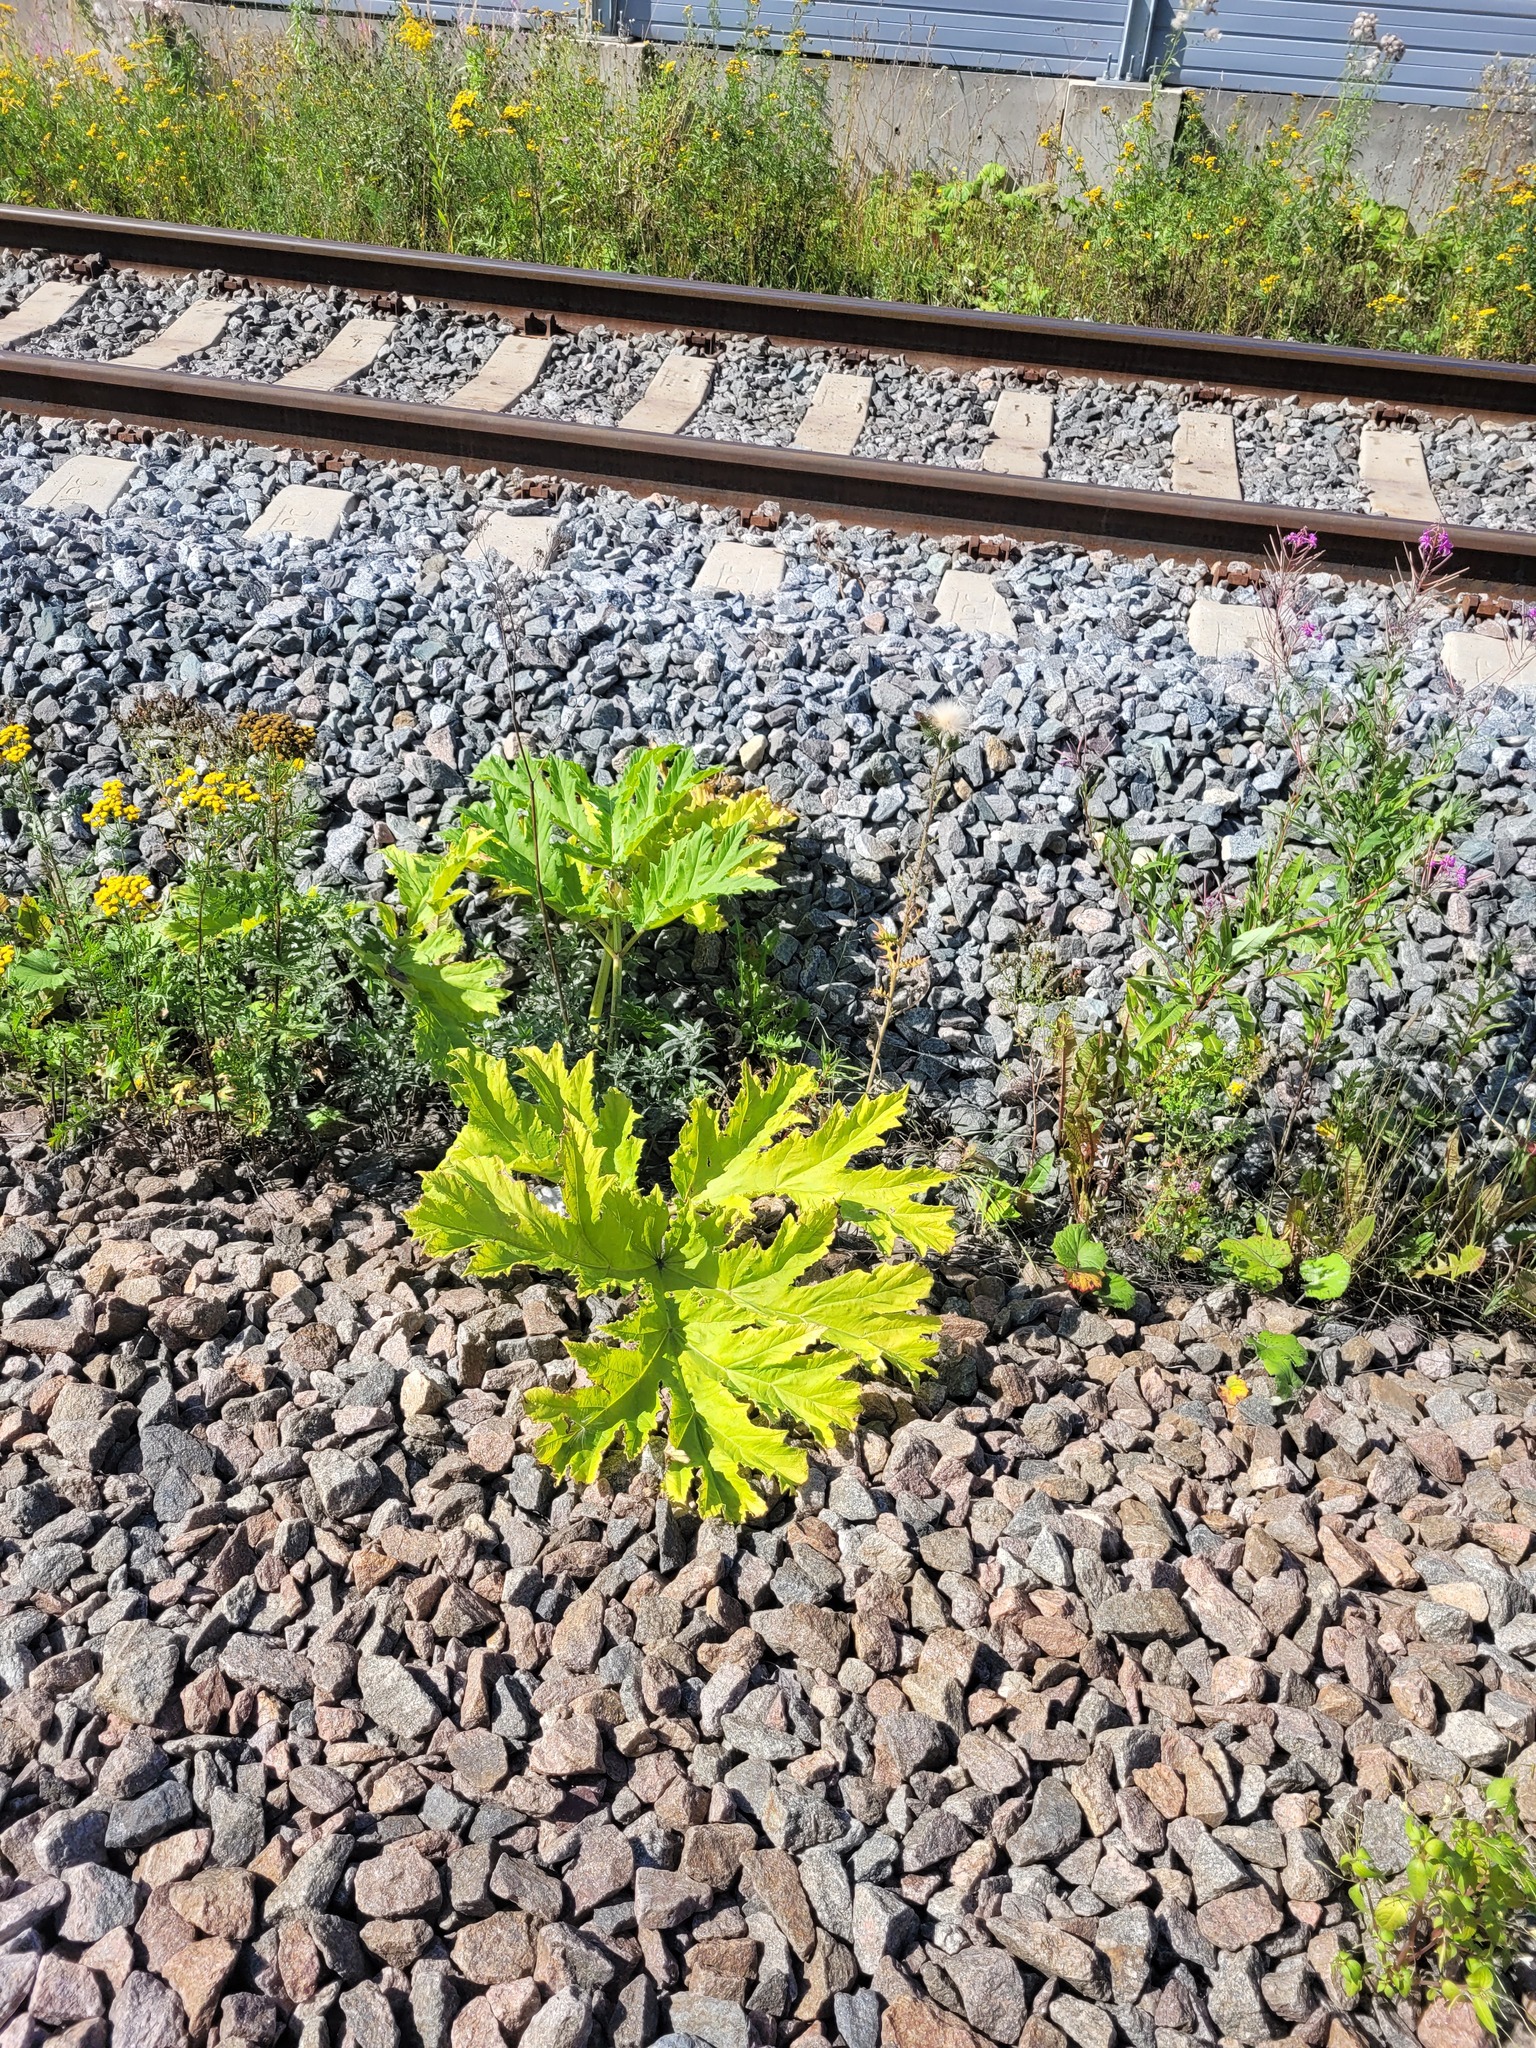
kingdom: Plantae
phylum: Tracheophyta
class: Magnoliopsida
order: Apiales
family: Apiaceae
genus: Heracleum
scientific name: Heracleum sosnowskyi
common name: Sosnowsky's hogweed
